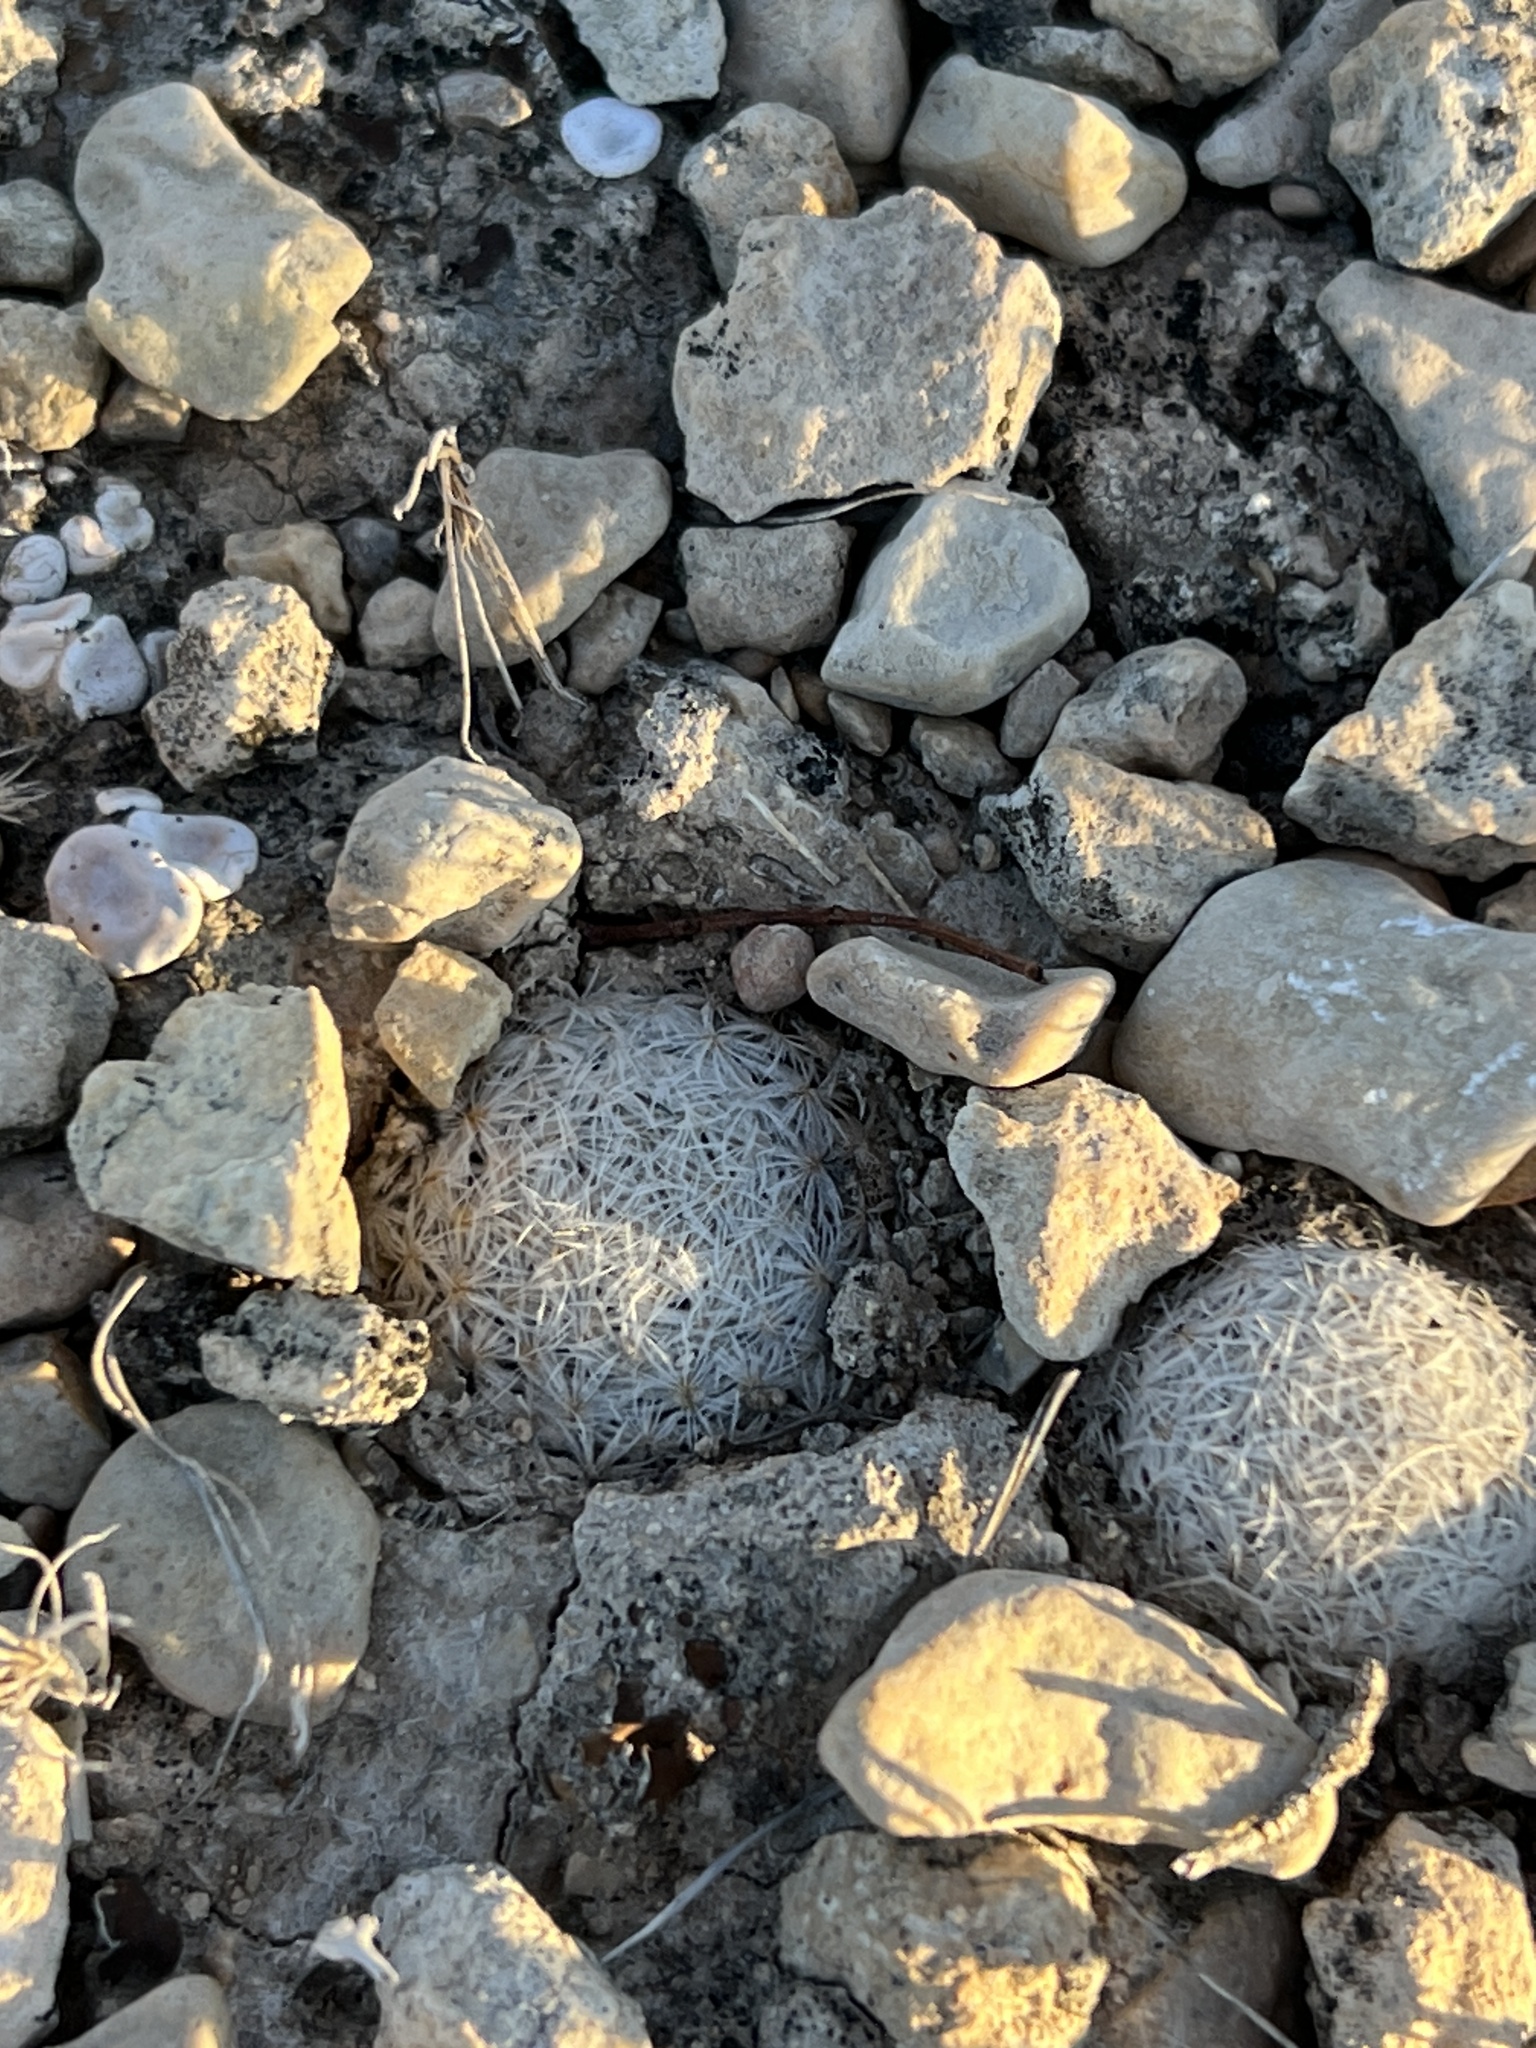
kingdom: Plantae
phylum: Tracheophyta
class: Magnoliopsida
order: Caryophyllales
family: Cactaceae
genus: Mammillaria
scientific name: Mammillaria lasiacantha
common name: Lace-spine nipple cactus
